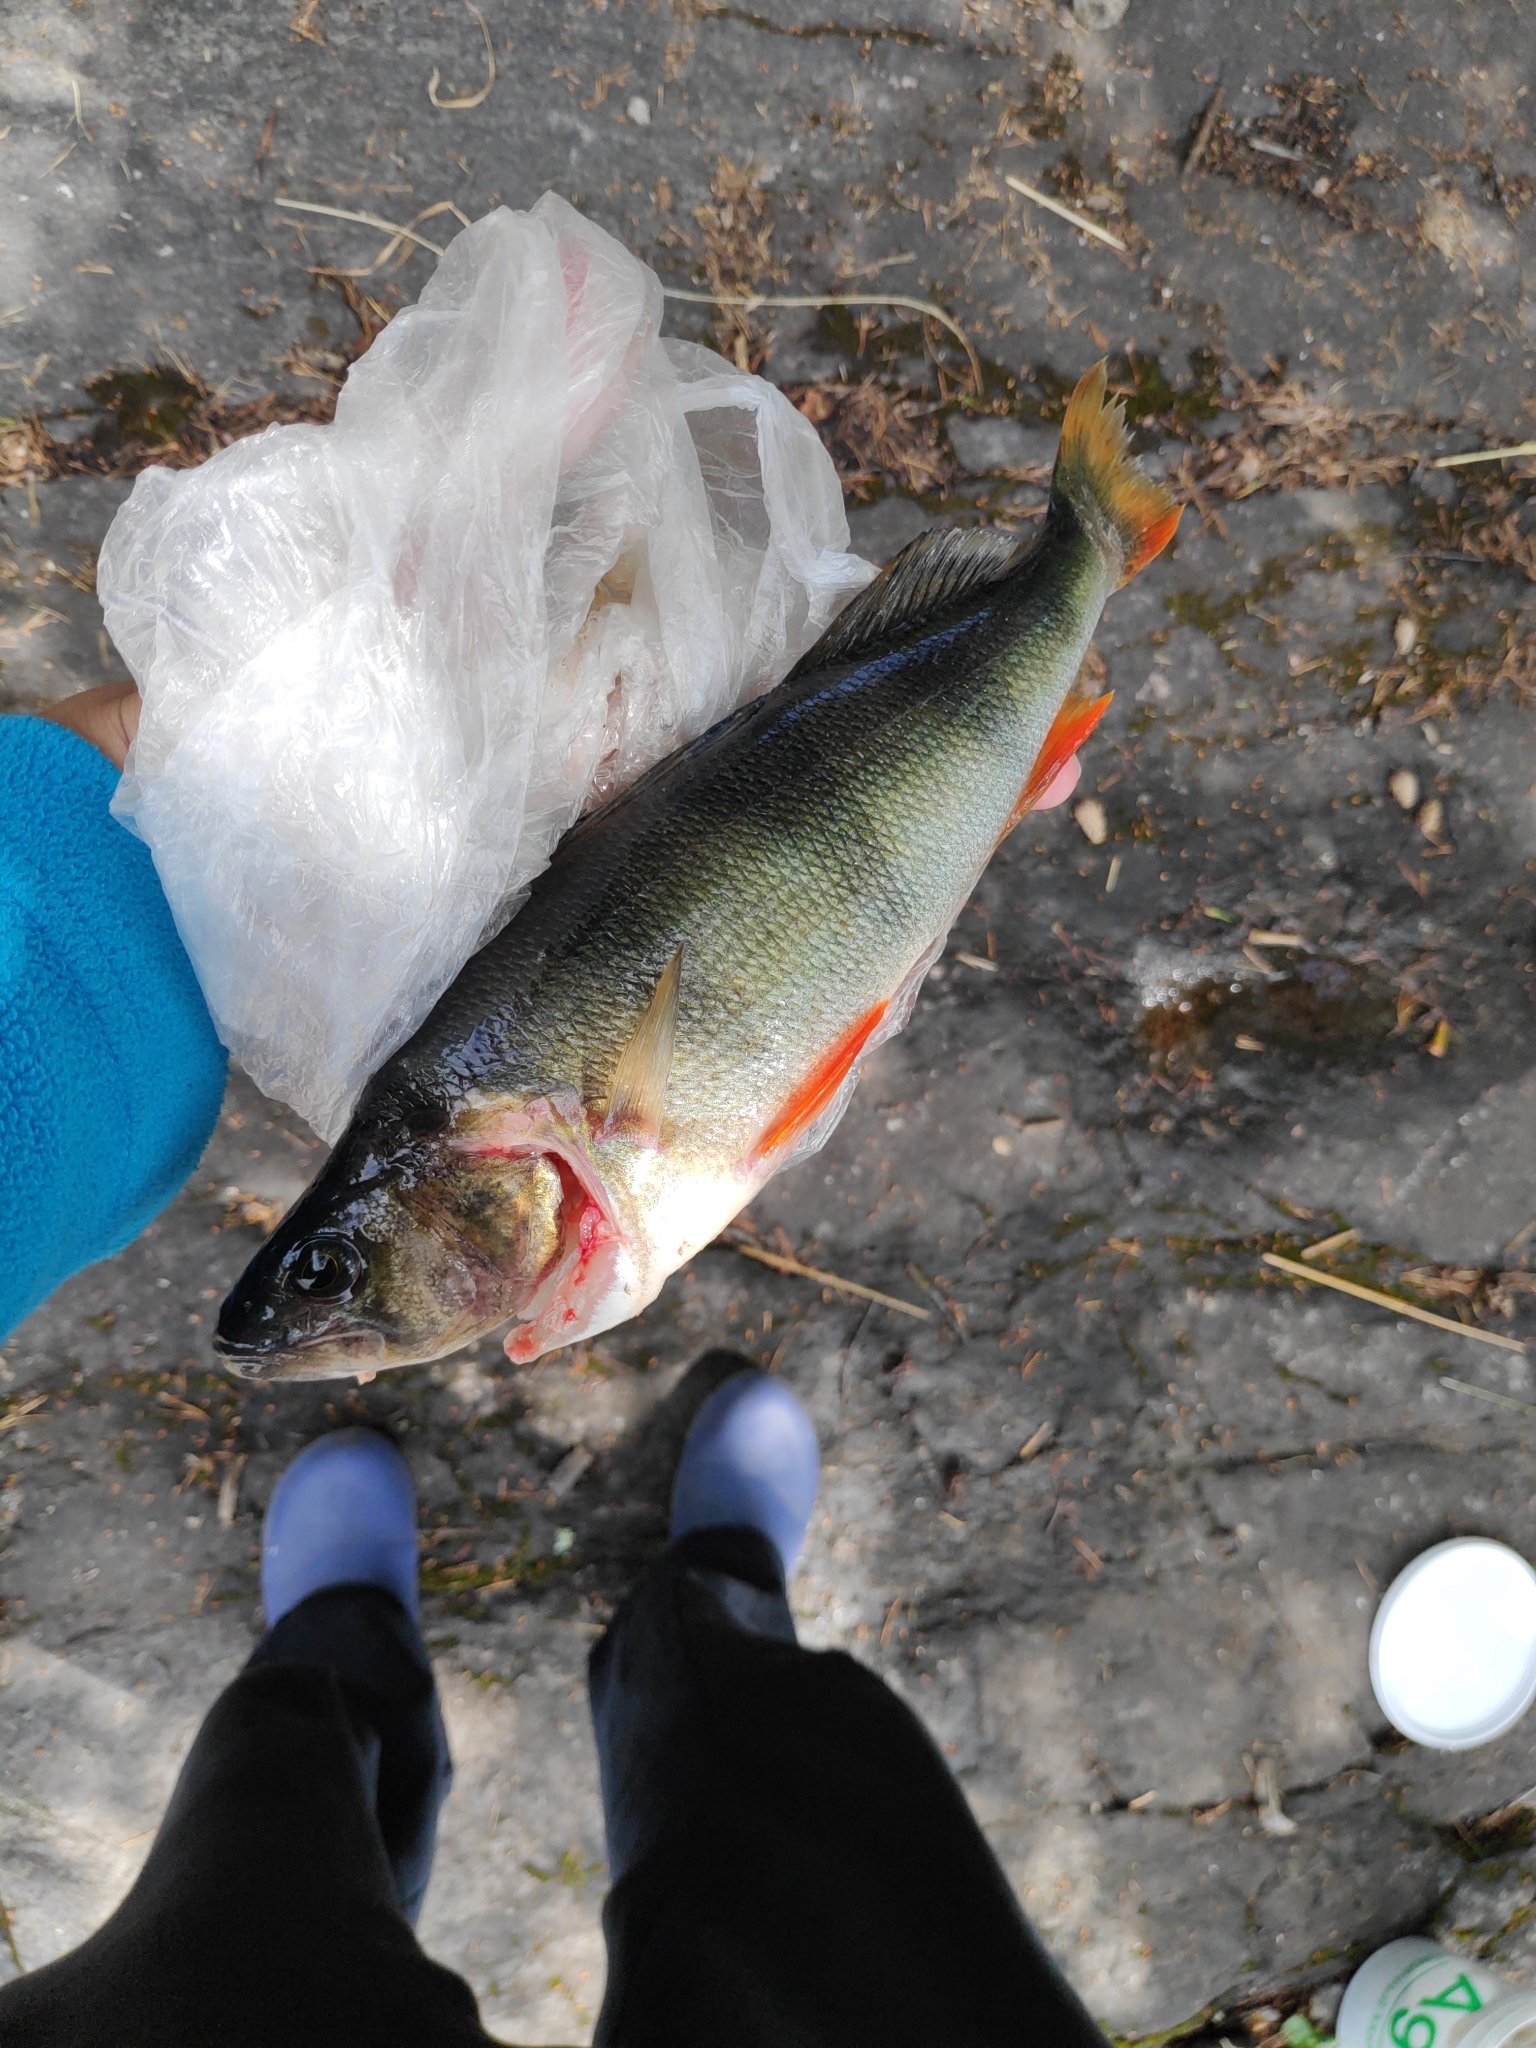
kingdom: Animalia
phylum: Chordata
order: Perciformes
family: Percidae
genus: Perca
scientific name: Perca fluviatilis
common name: Perch
